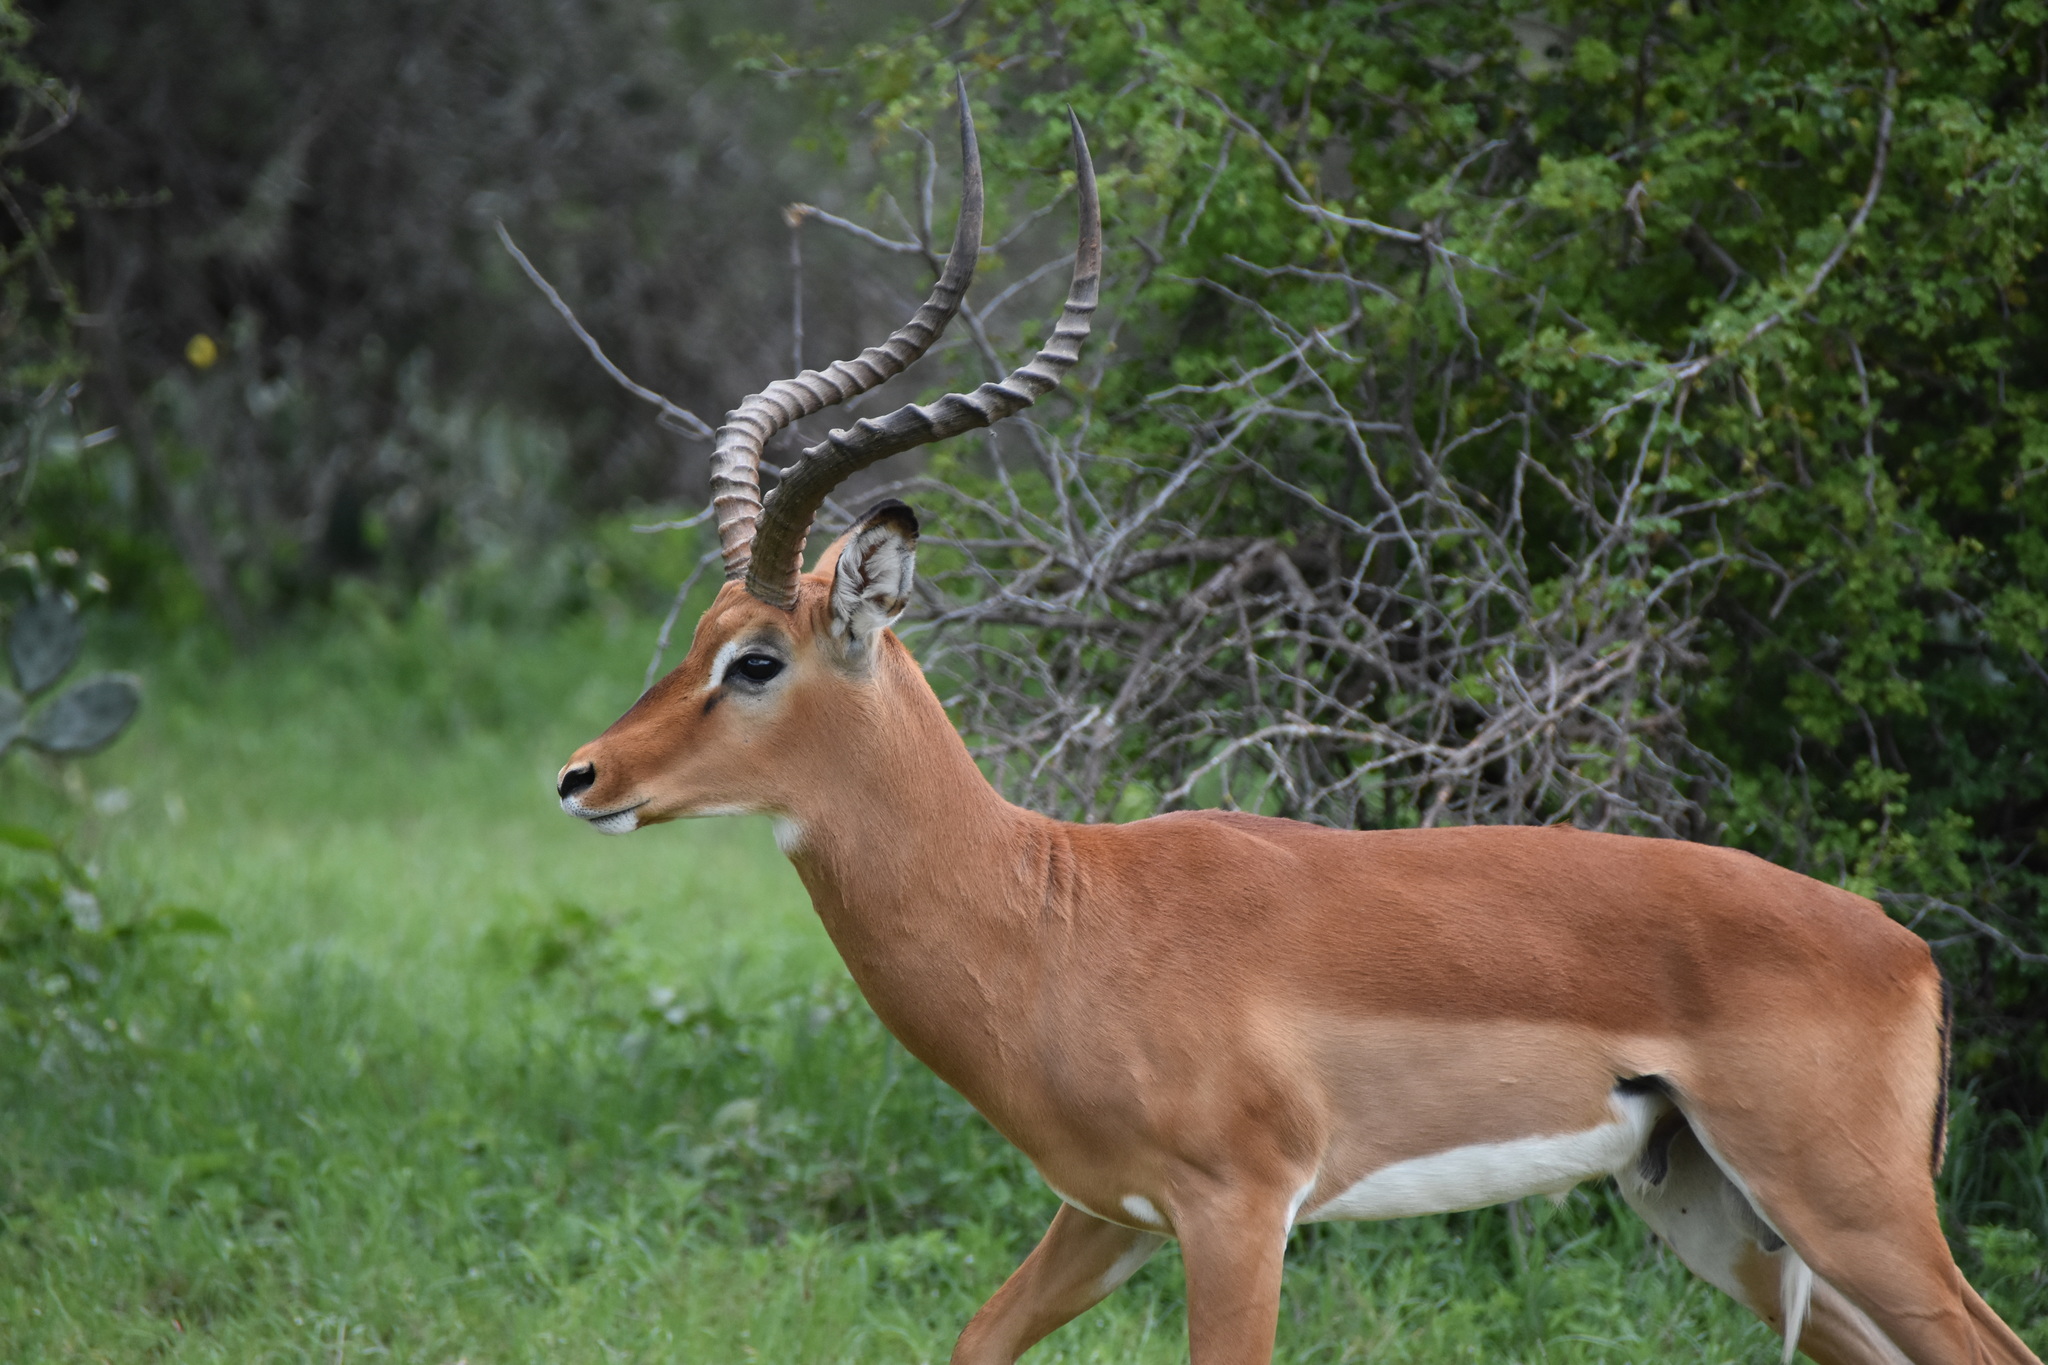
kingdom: Animalia
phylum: Chordata
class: Mammalia
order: Artiodactyla
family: Bovidae
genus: Aepyceros
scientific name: Aepyceros melampus
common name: Impala
